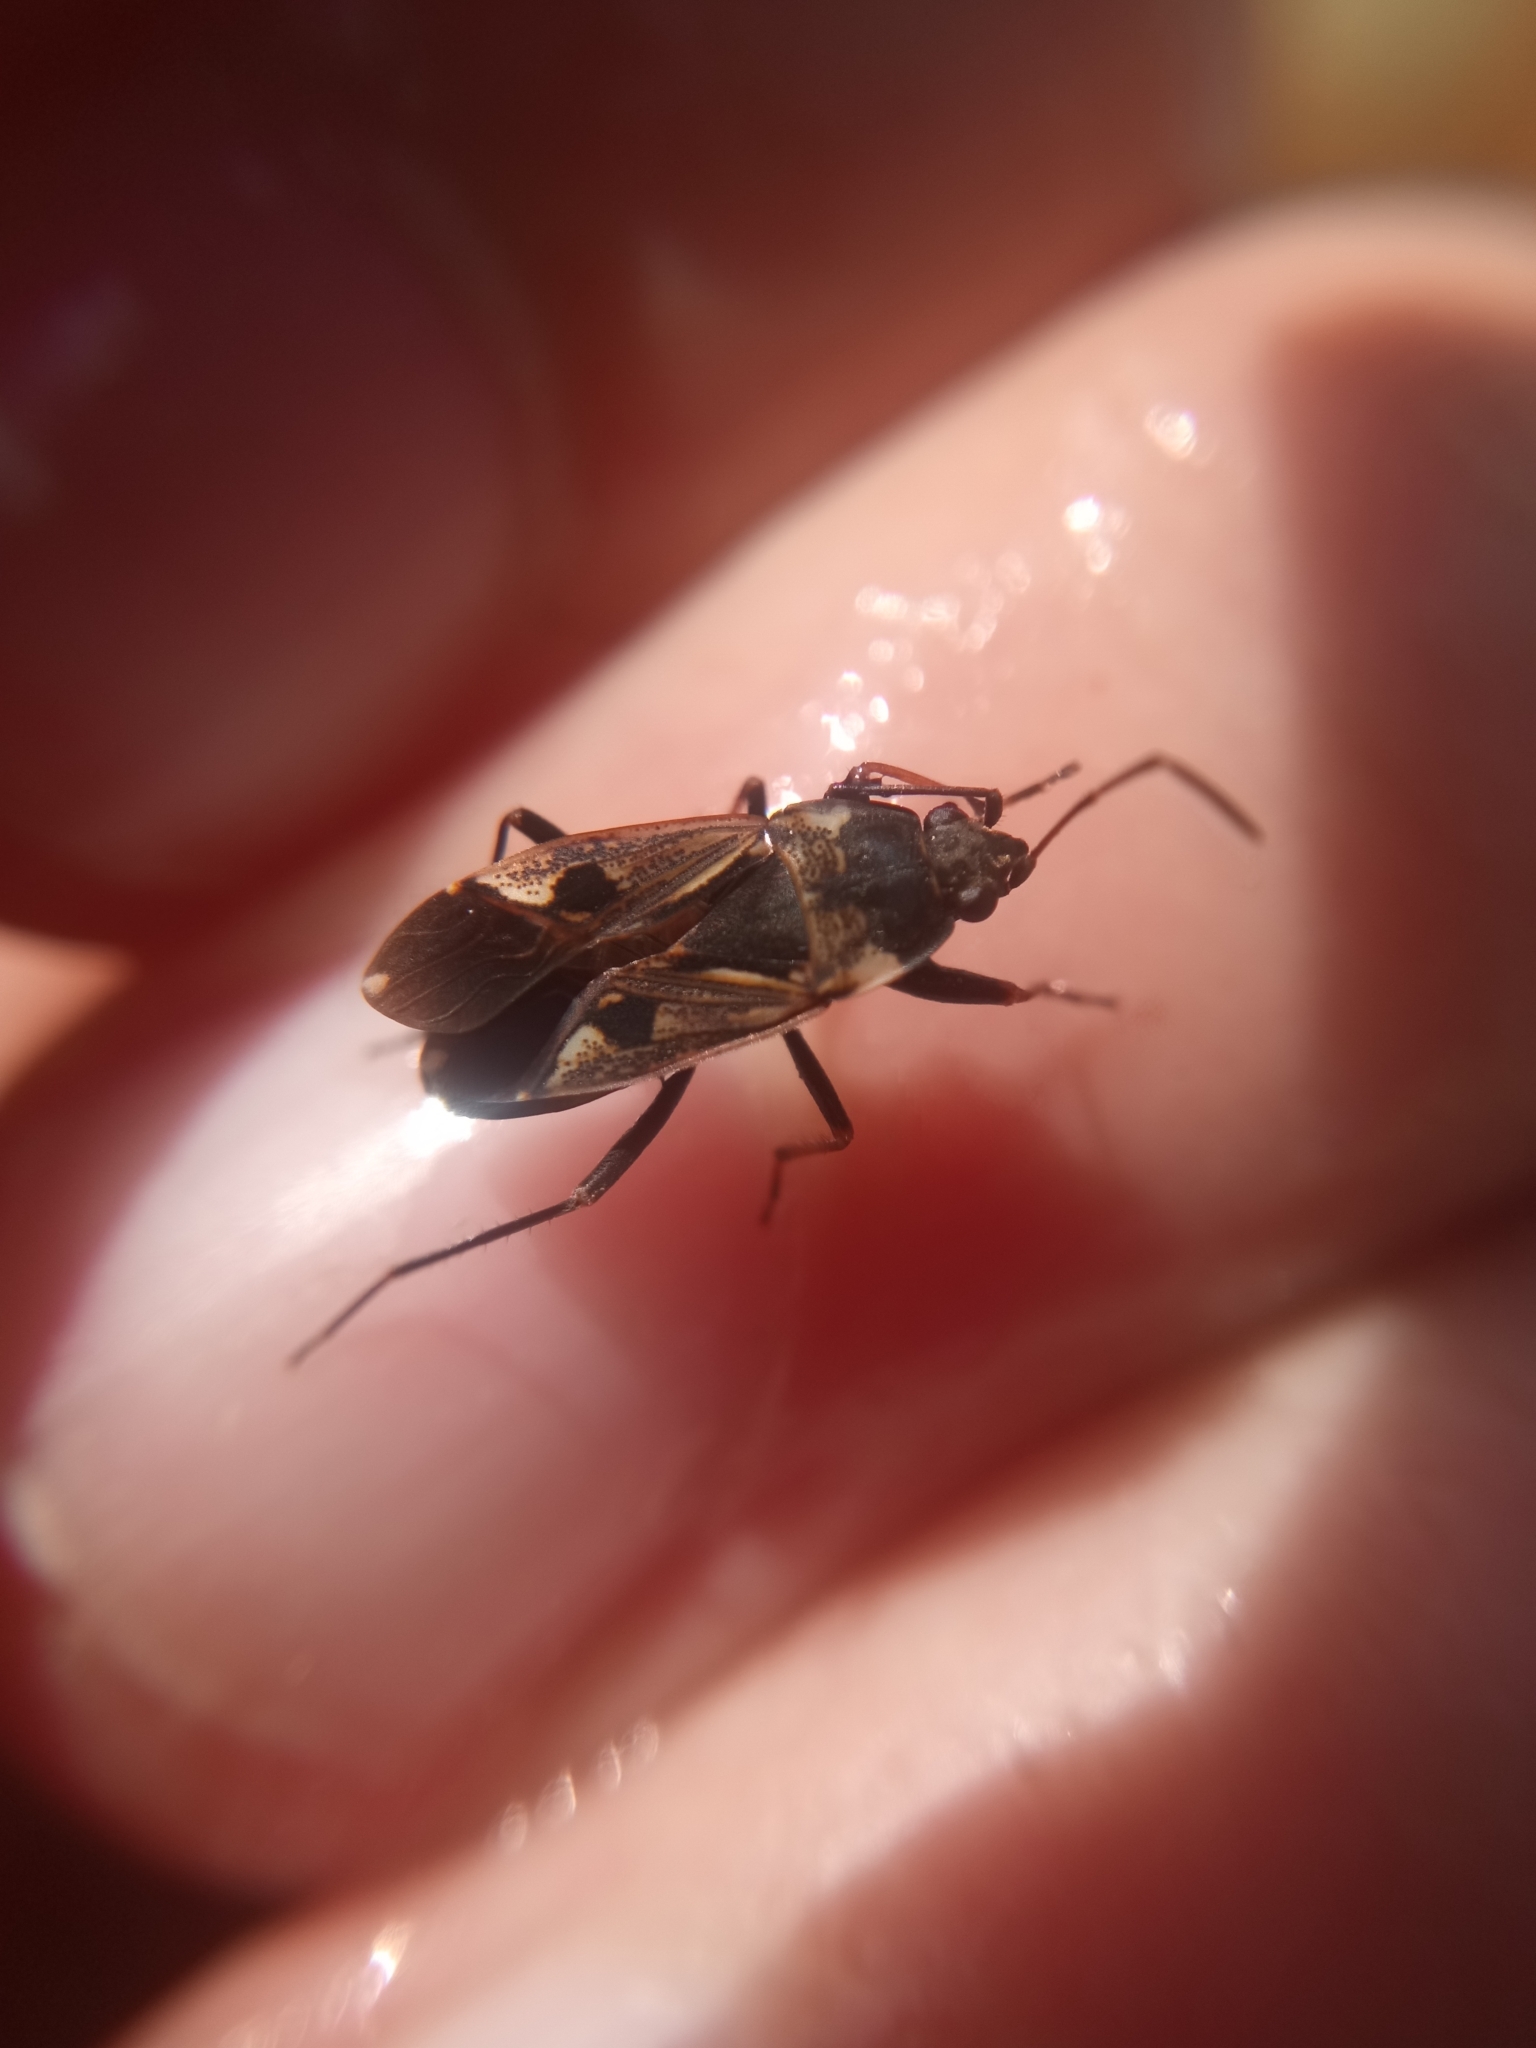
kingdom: Animalia
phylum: Arthropoda
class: Insecta
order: Hemiptera
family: Rhyparochromidae
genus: Rhyparochromus
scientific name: Rhyparochromus vulgaris
